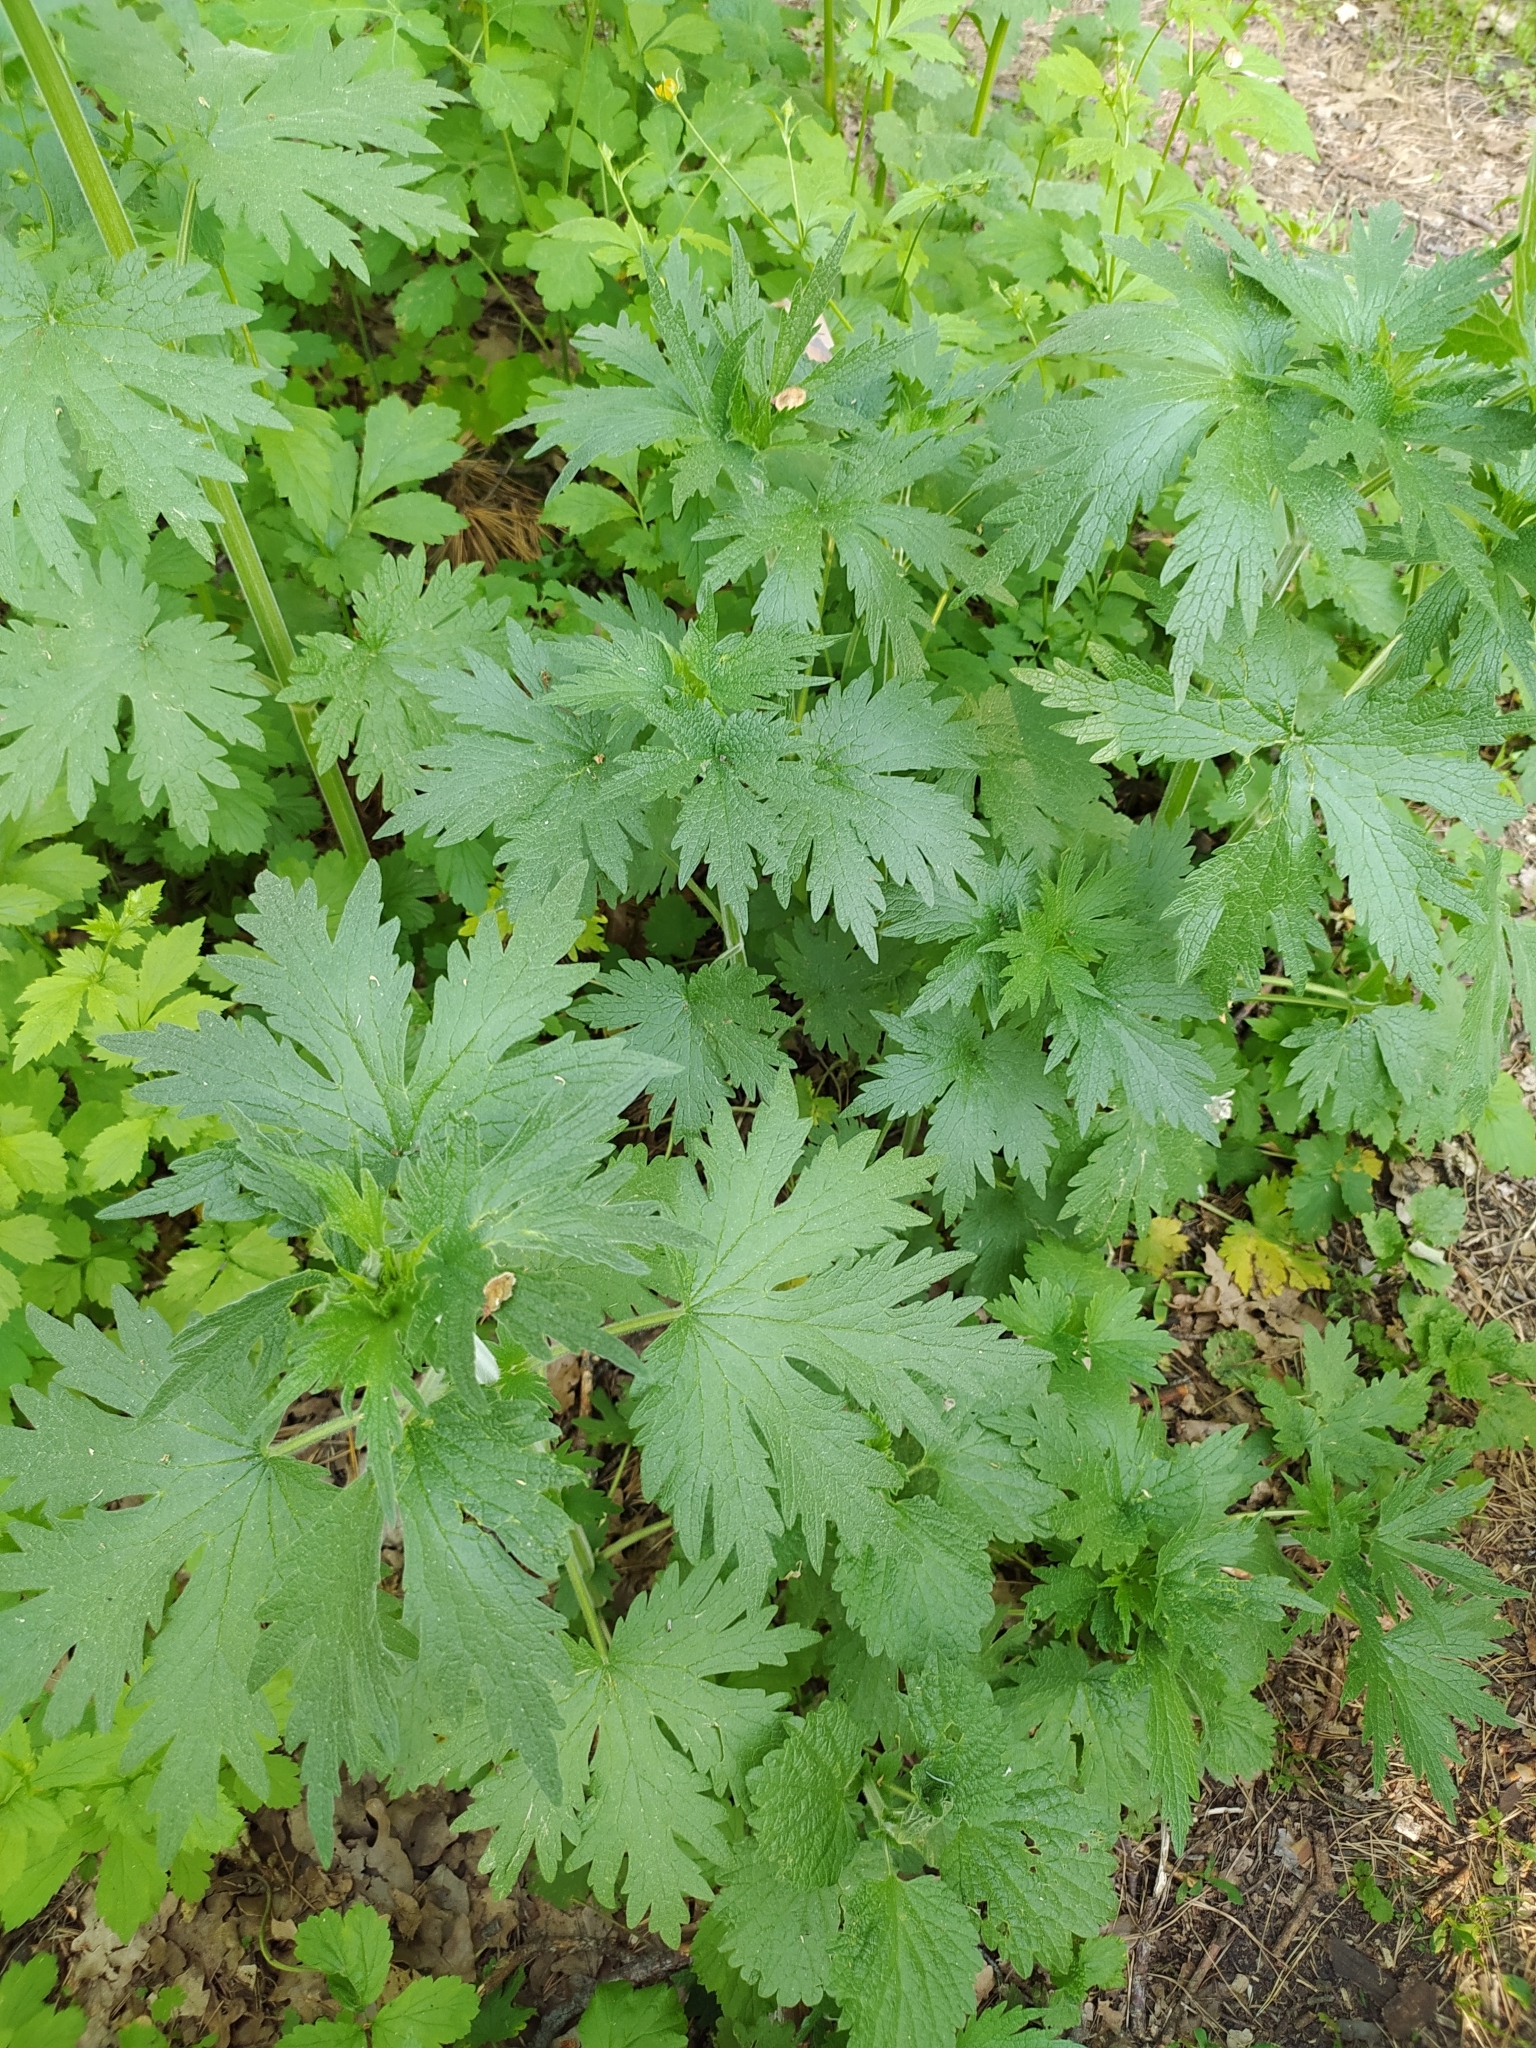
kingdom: Plantae
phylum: Tracheophyta
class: Magnoliopsida
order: Lamiales
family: Lamiaceae
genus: Leonurus
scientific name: Leonurus quinquelobatus
